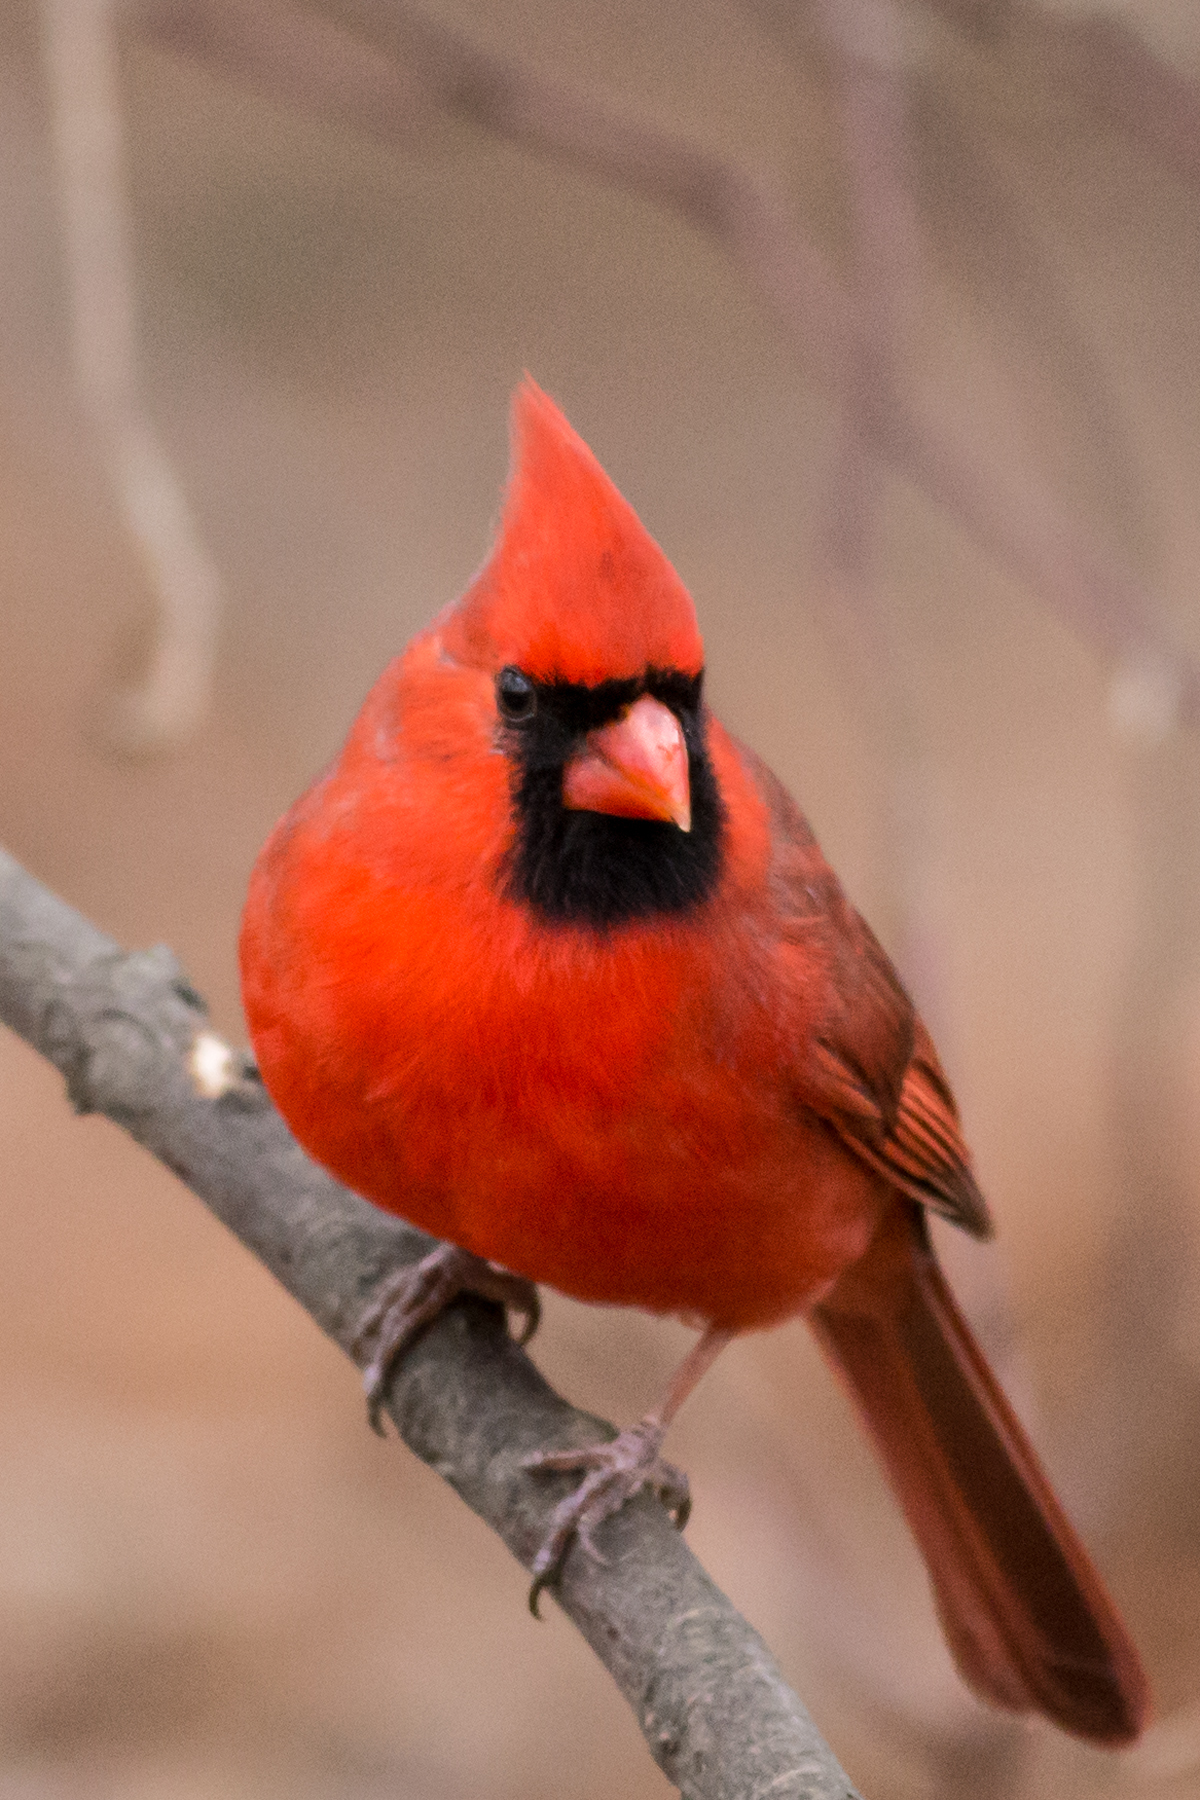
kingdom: Animalia
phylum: Chordata
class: Aves
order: Passeriformes
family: Cardinalidae
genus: Cardinalis
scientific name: Cardinalis cardinalis
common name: Northern cardinal
